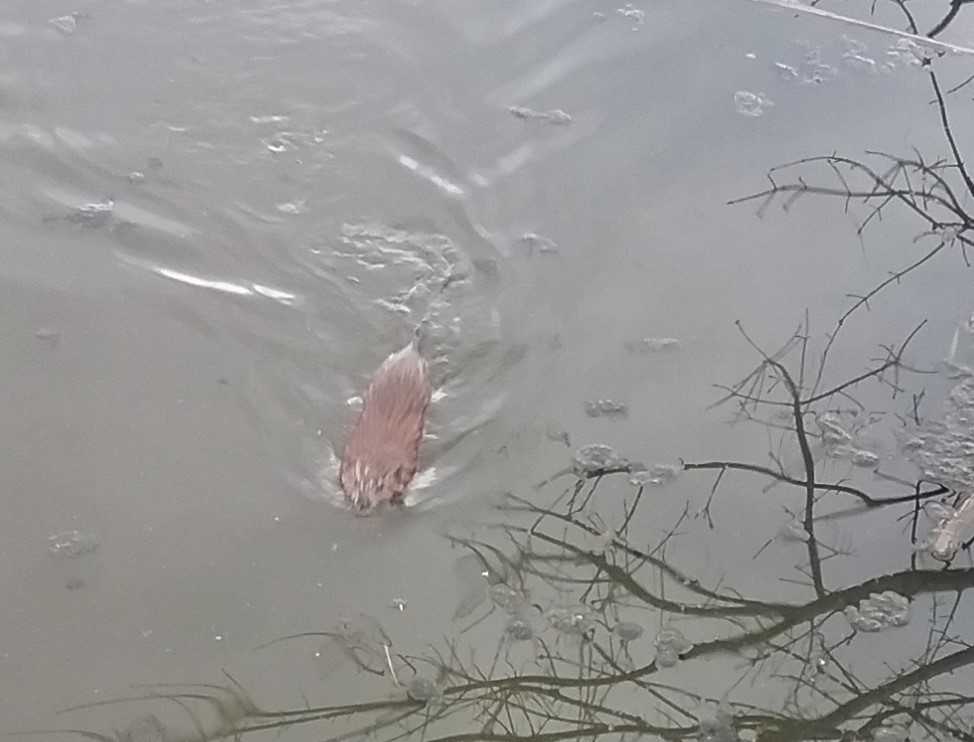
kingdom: Animalia
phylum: Chordata
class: Mammalia
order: Rodentia
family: Cricetidae
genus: Ondatra
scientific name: Ondatra zibethicus
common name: Muskrat
